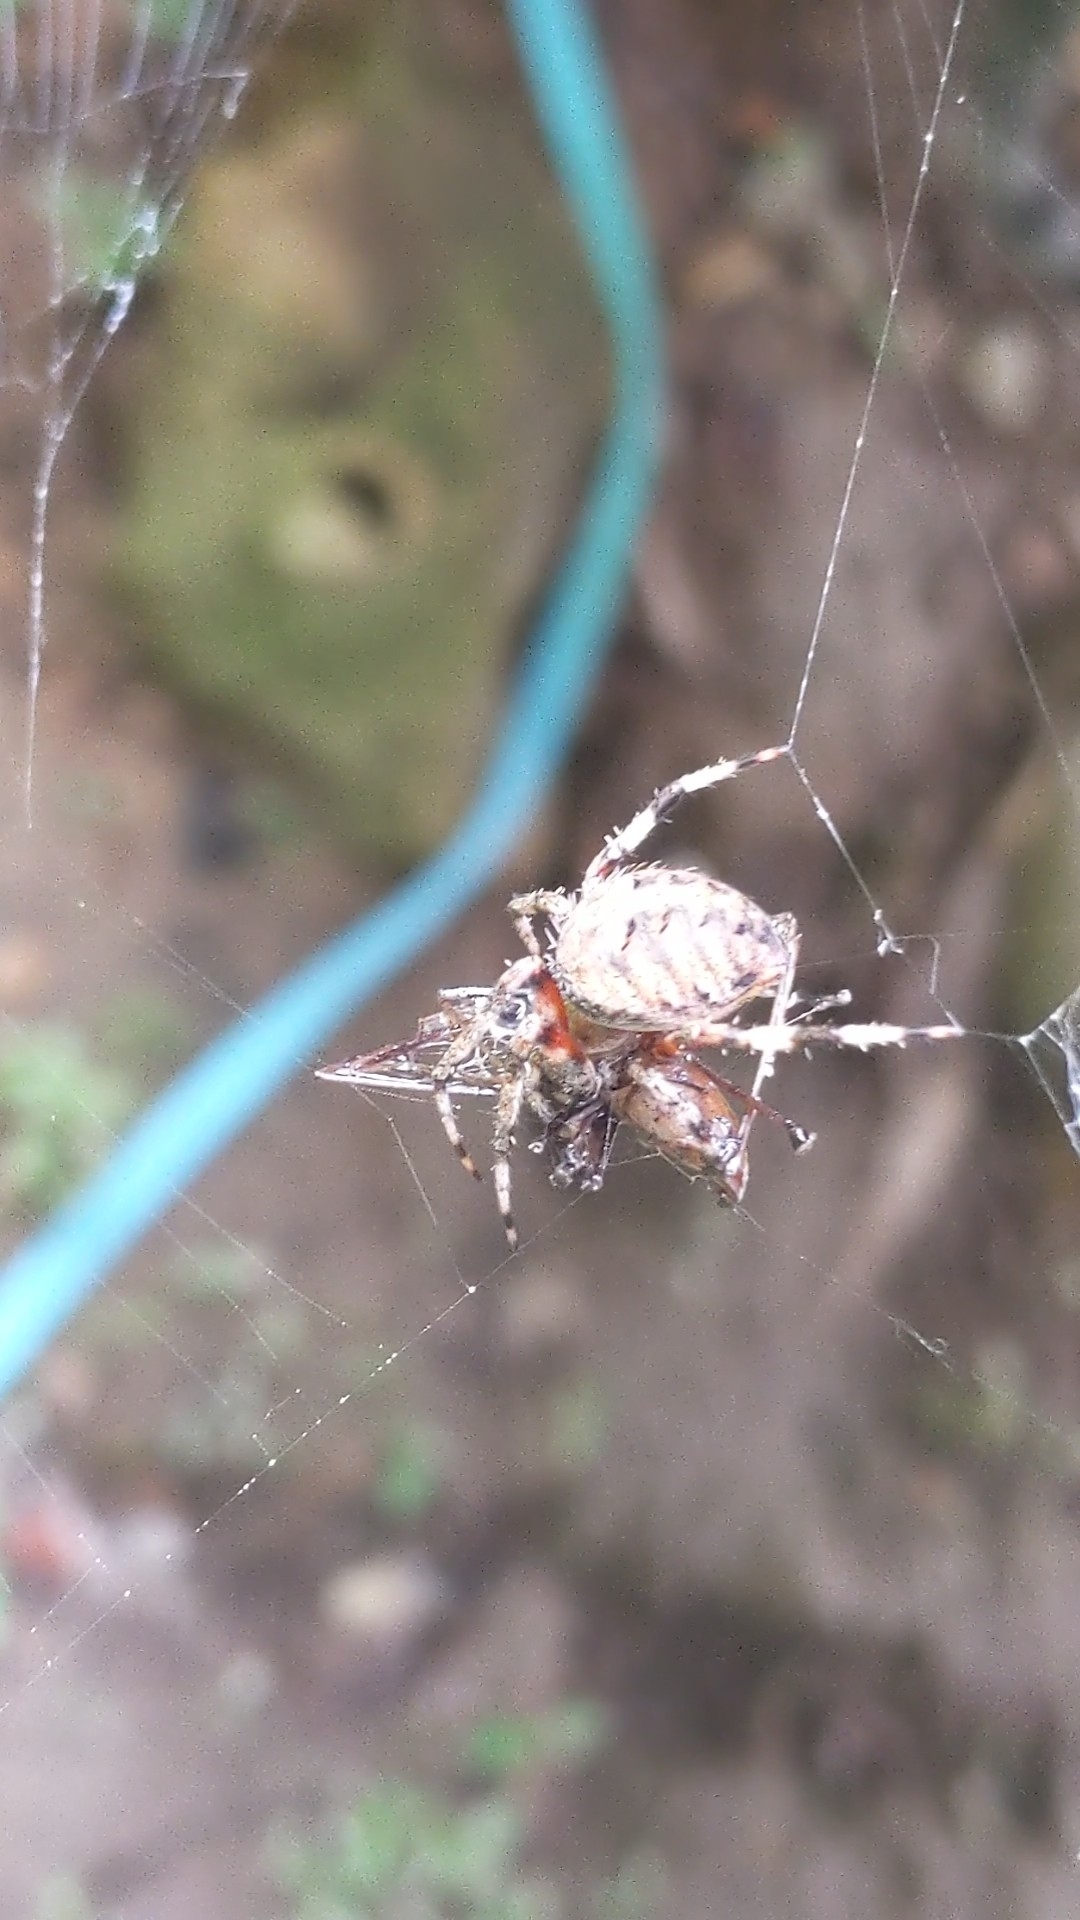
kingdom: Animalia
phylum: Arthropoda
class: Arachnida
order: Araneae
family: Araneidae
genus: Neoscona
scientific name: Neoscona crucifera
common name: Spotted orbweaver
